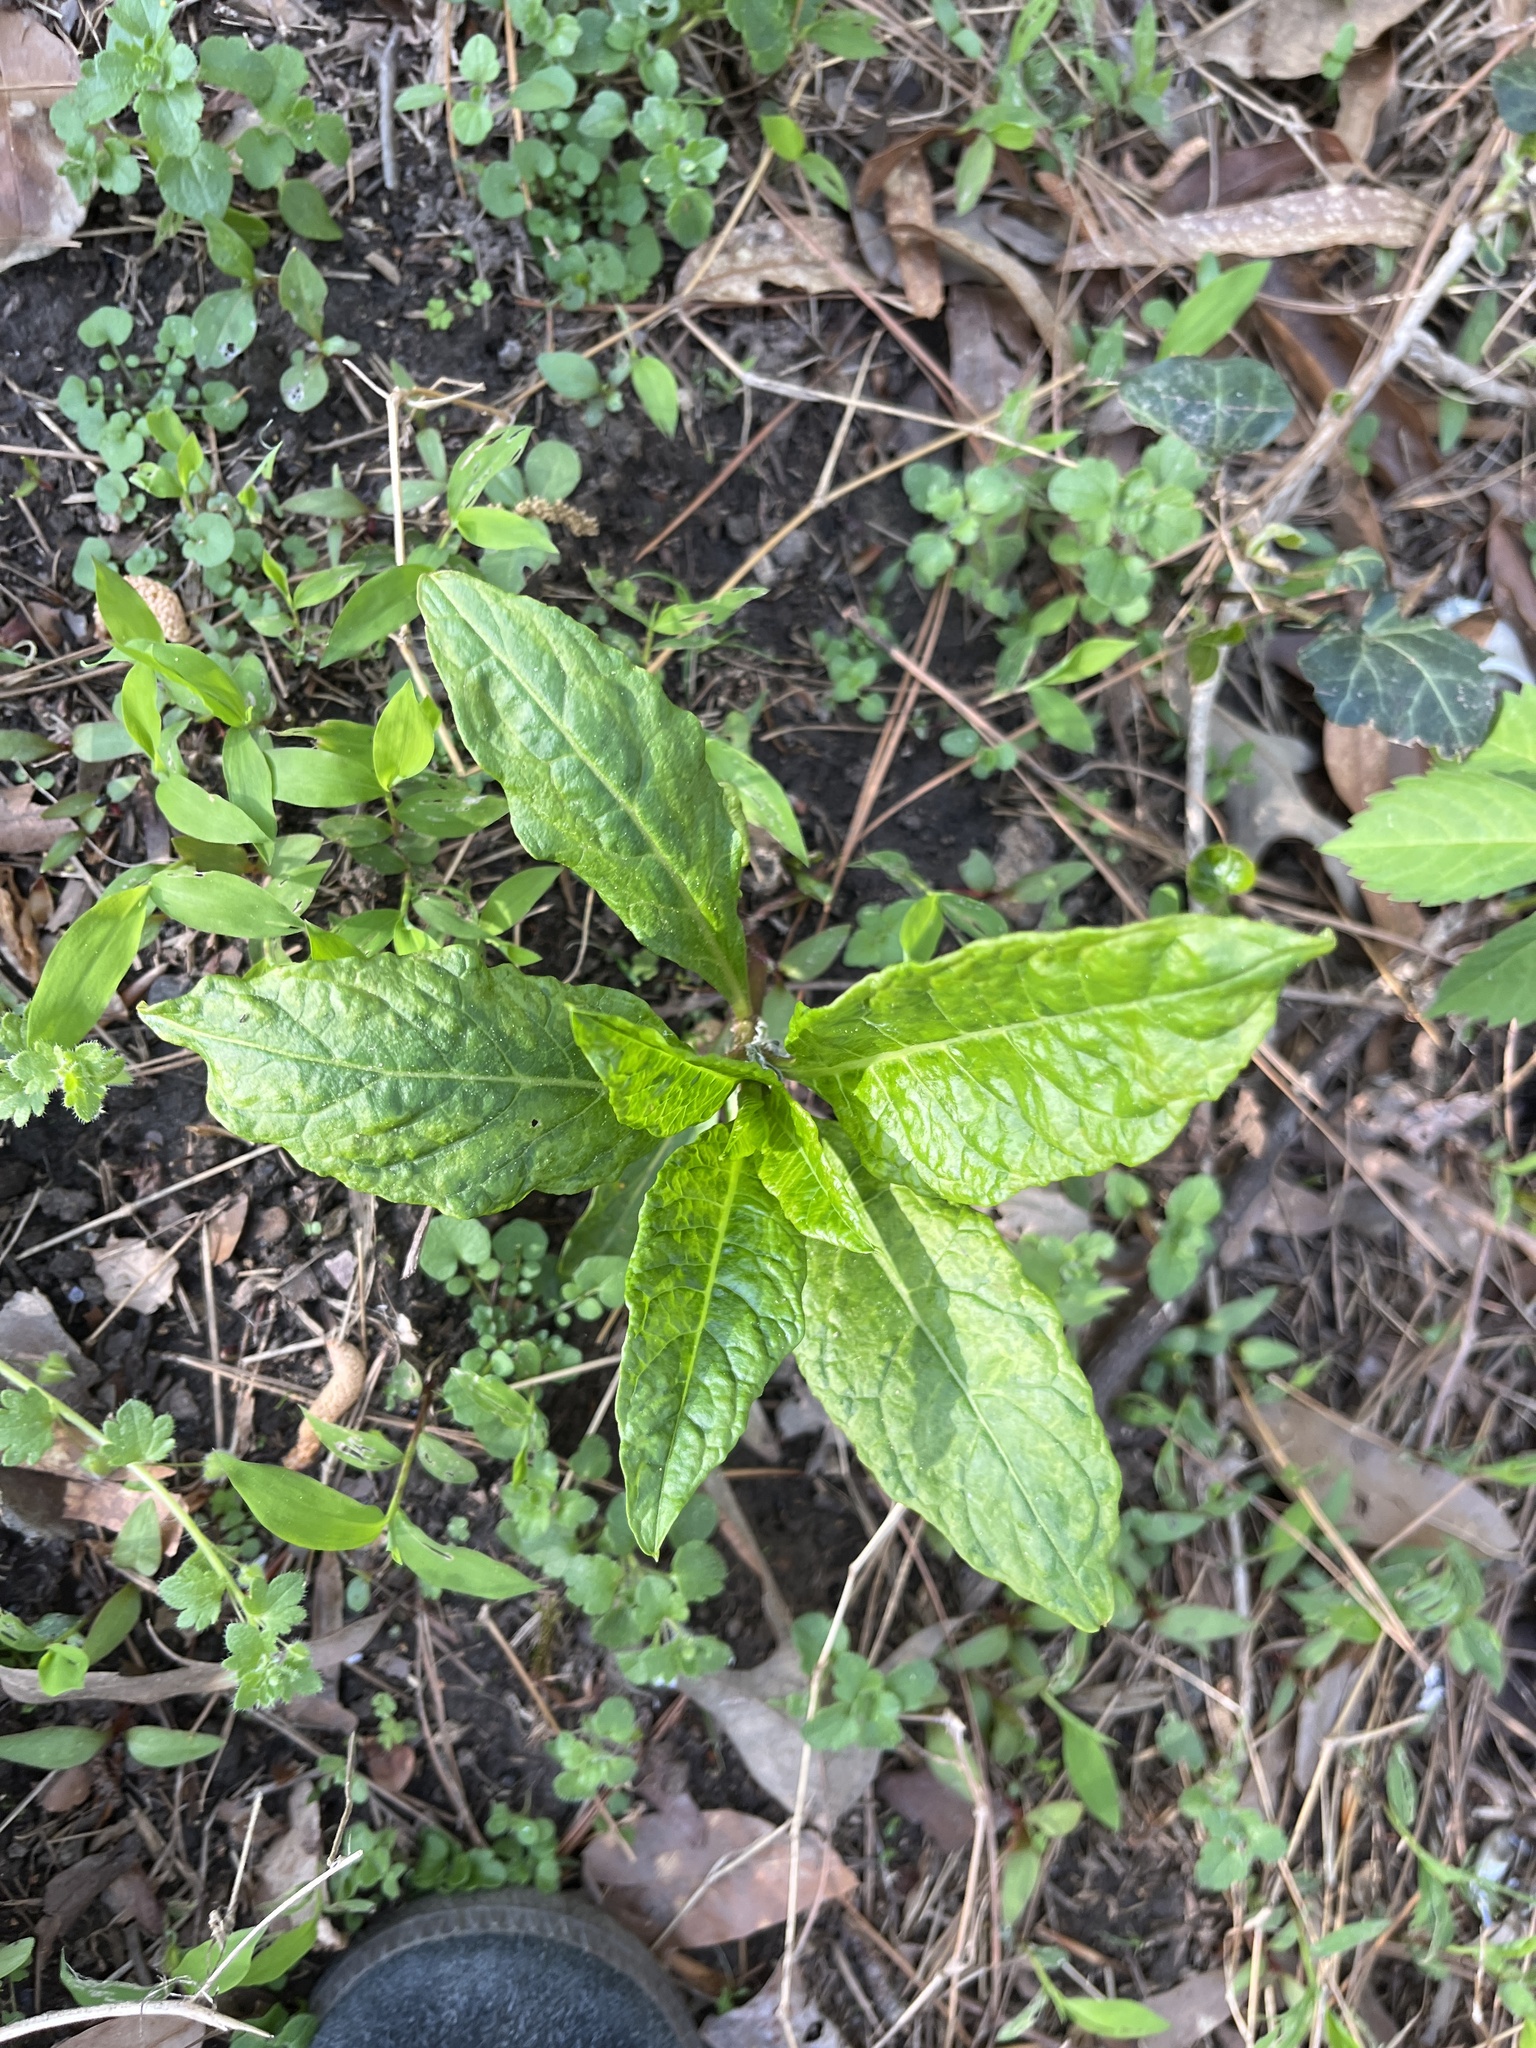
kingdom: Plantae
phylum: Tracheophyta
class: Magnoliopsida
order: Caryophyllales
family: Phytolaccaceae
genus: Phytolacca
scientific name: Phytolacca americana
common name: American pokeweed
